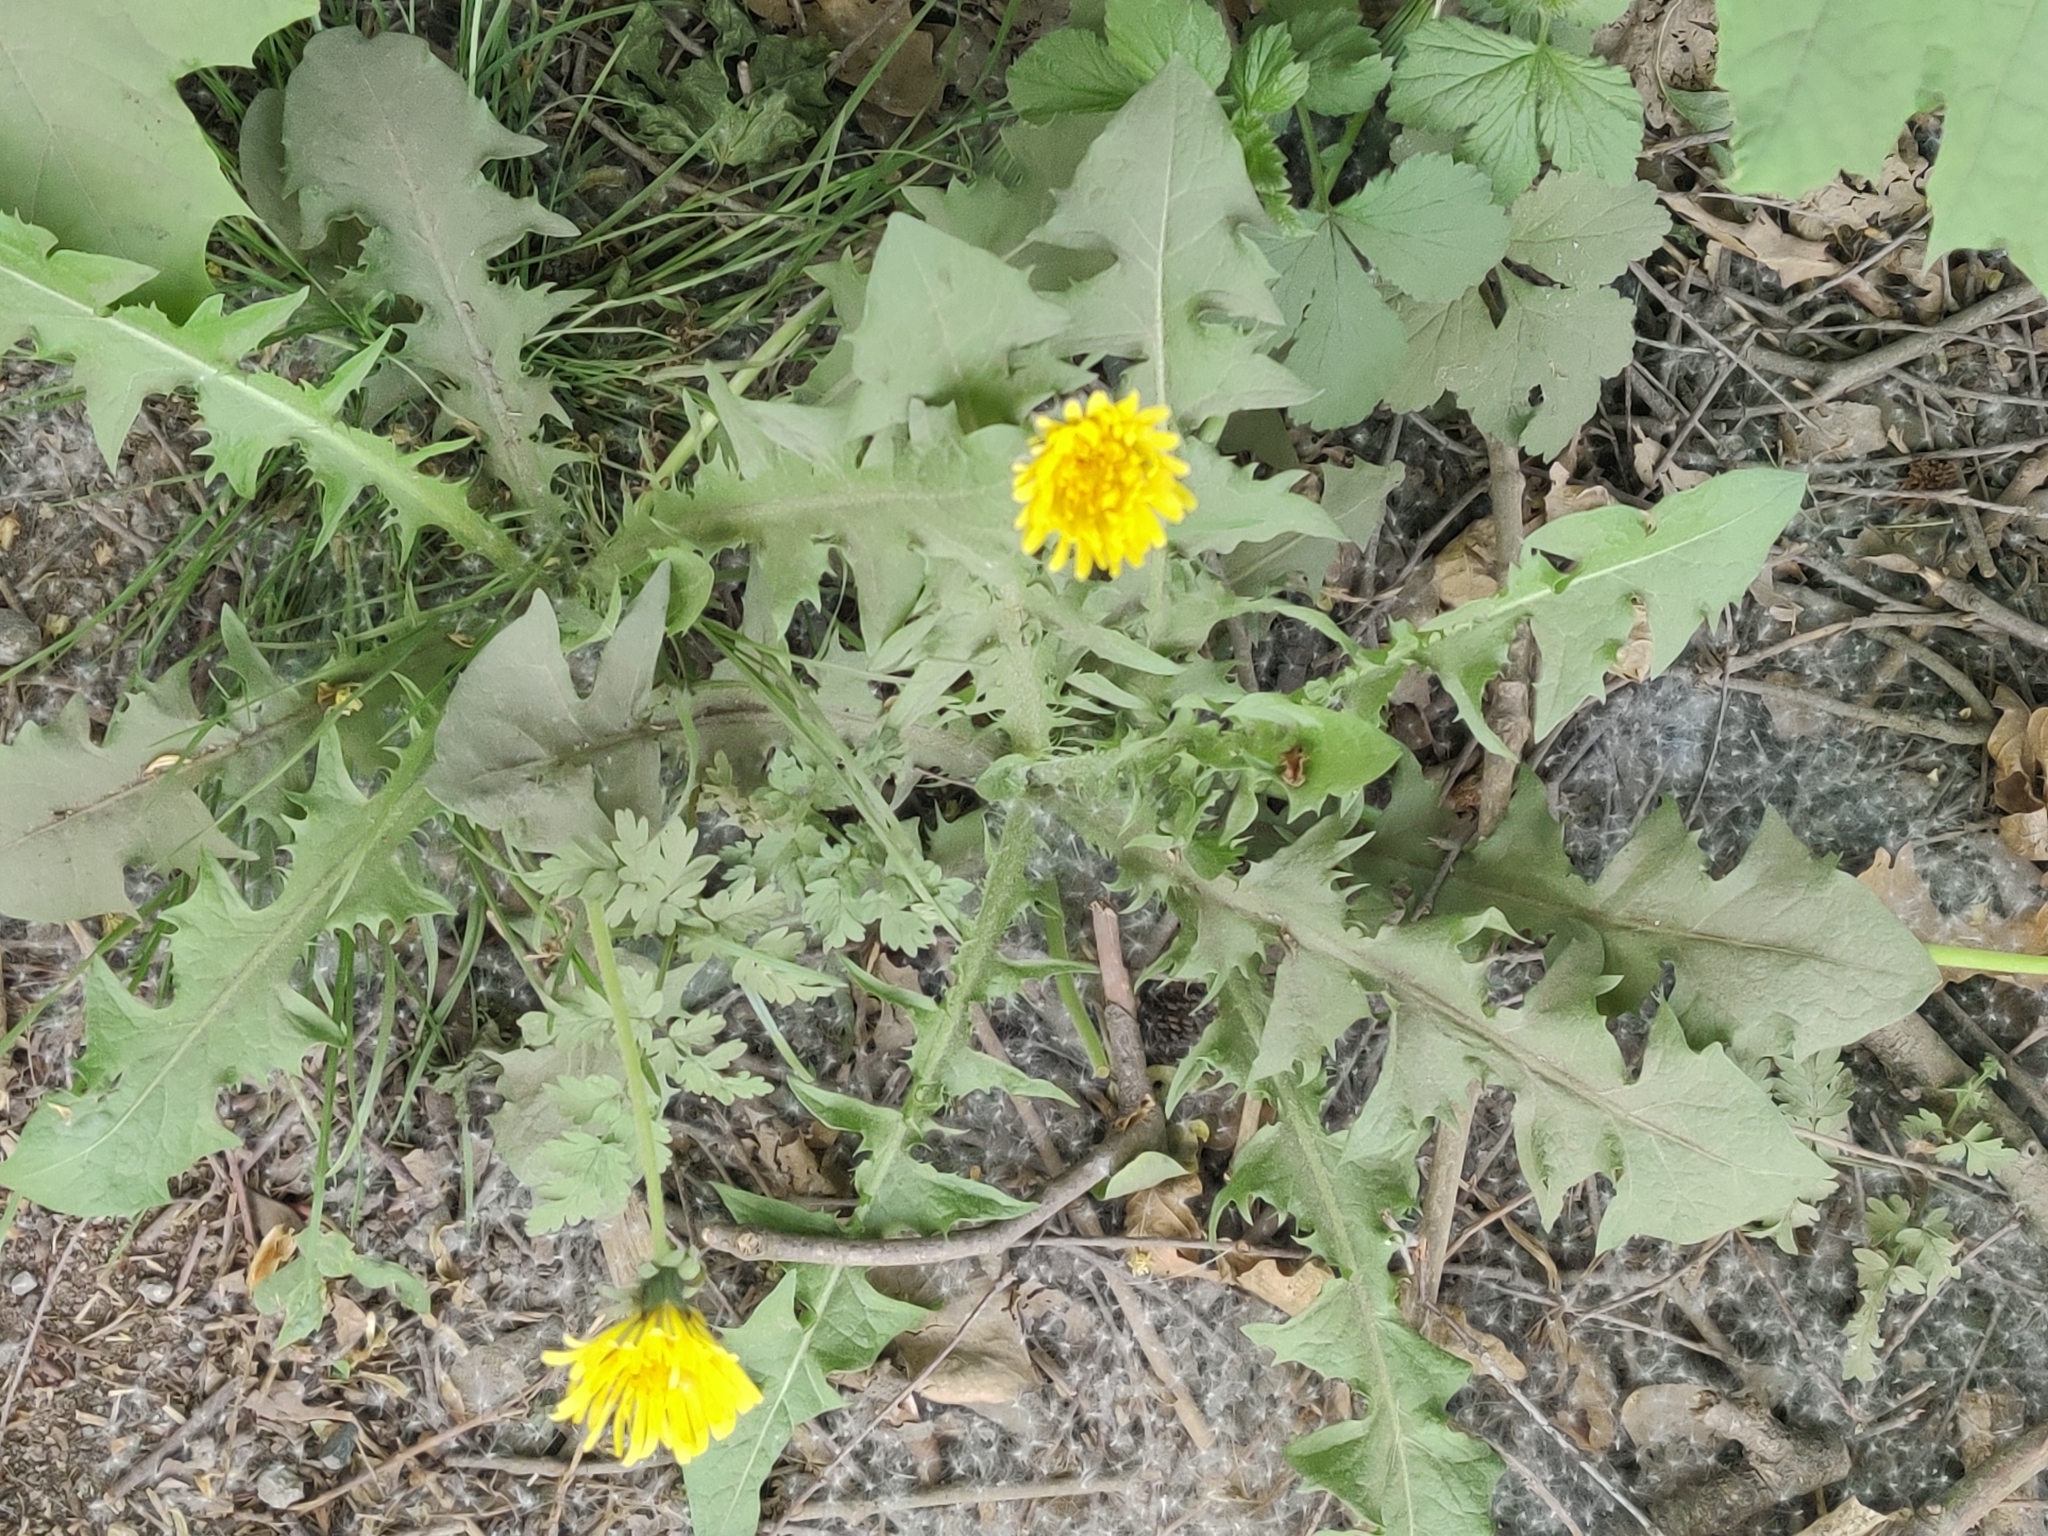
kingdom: Plantae
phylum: Tracheophyta
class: Magnoliopsida
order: Asterales
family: Asteraceae
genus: Taraxacum
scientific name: Taraxacum officinale
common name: Common dandelion
